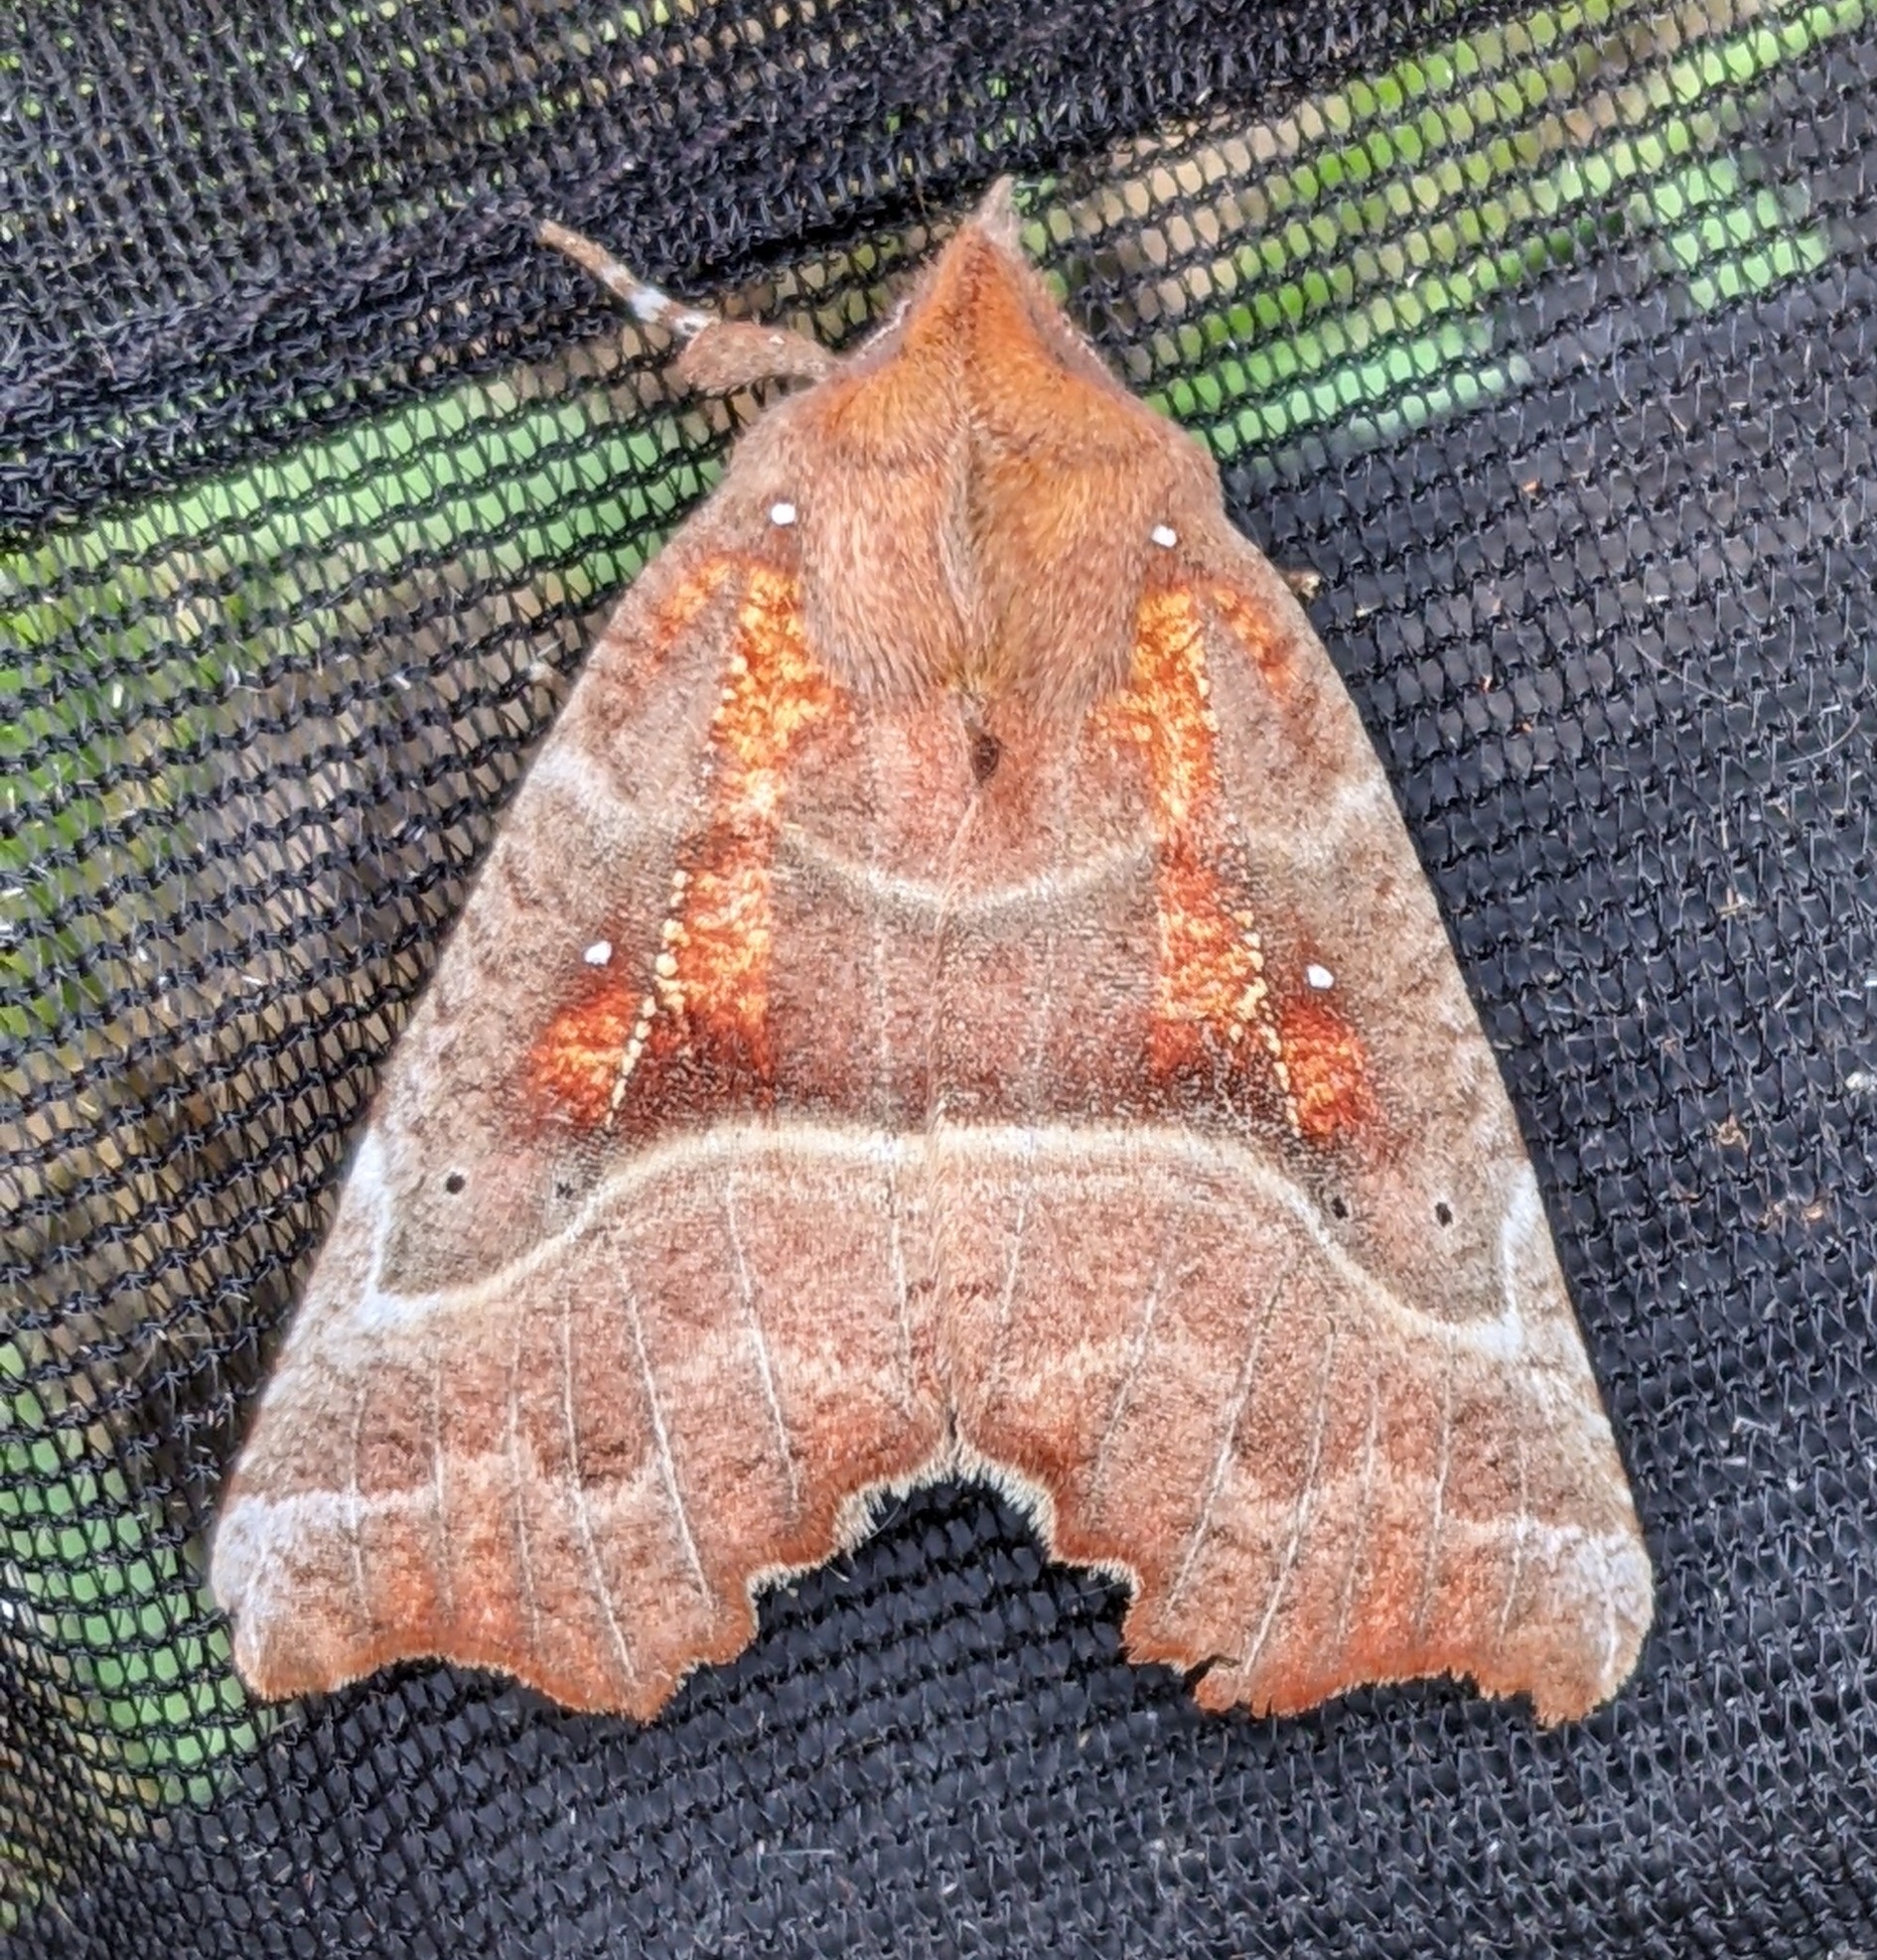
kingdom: Animalia
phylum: Arthropoda
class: Insecta
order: Lepidoptera
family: Erebidae
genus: Scoliopteryx
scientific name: Scoliopteryx libatrix
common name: Herald
